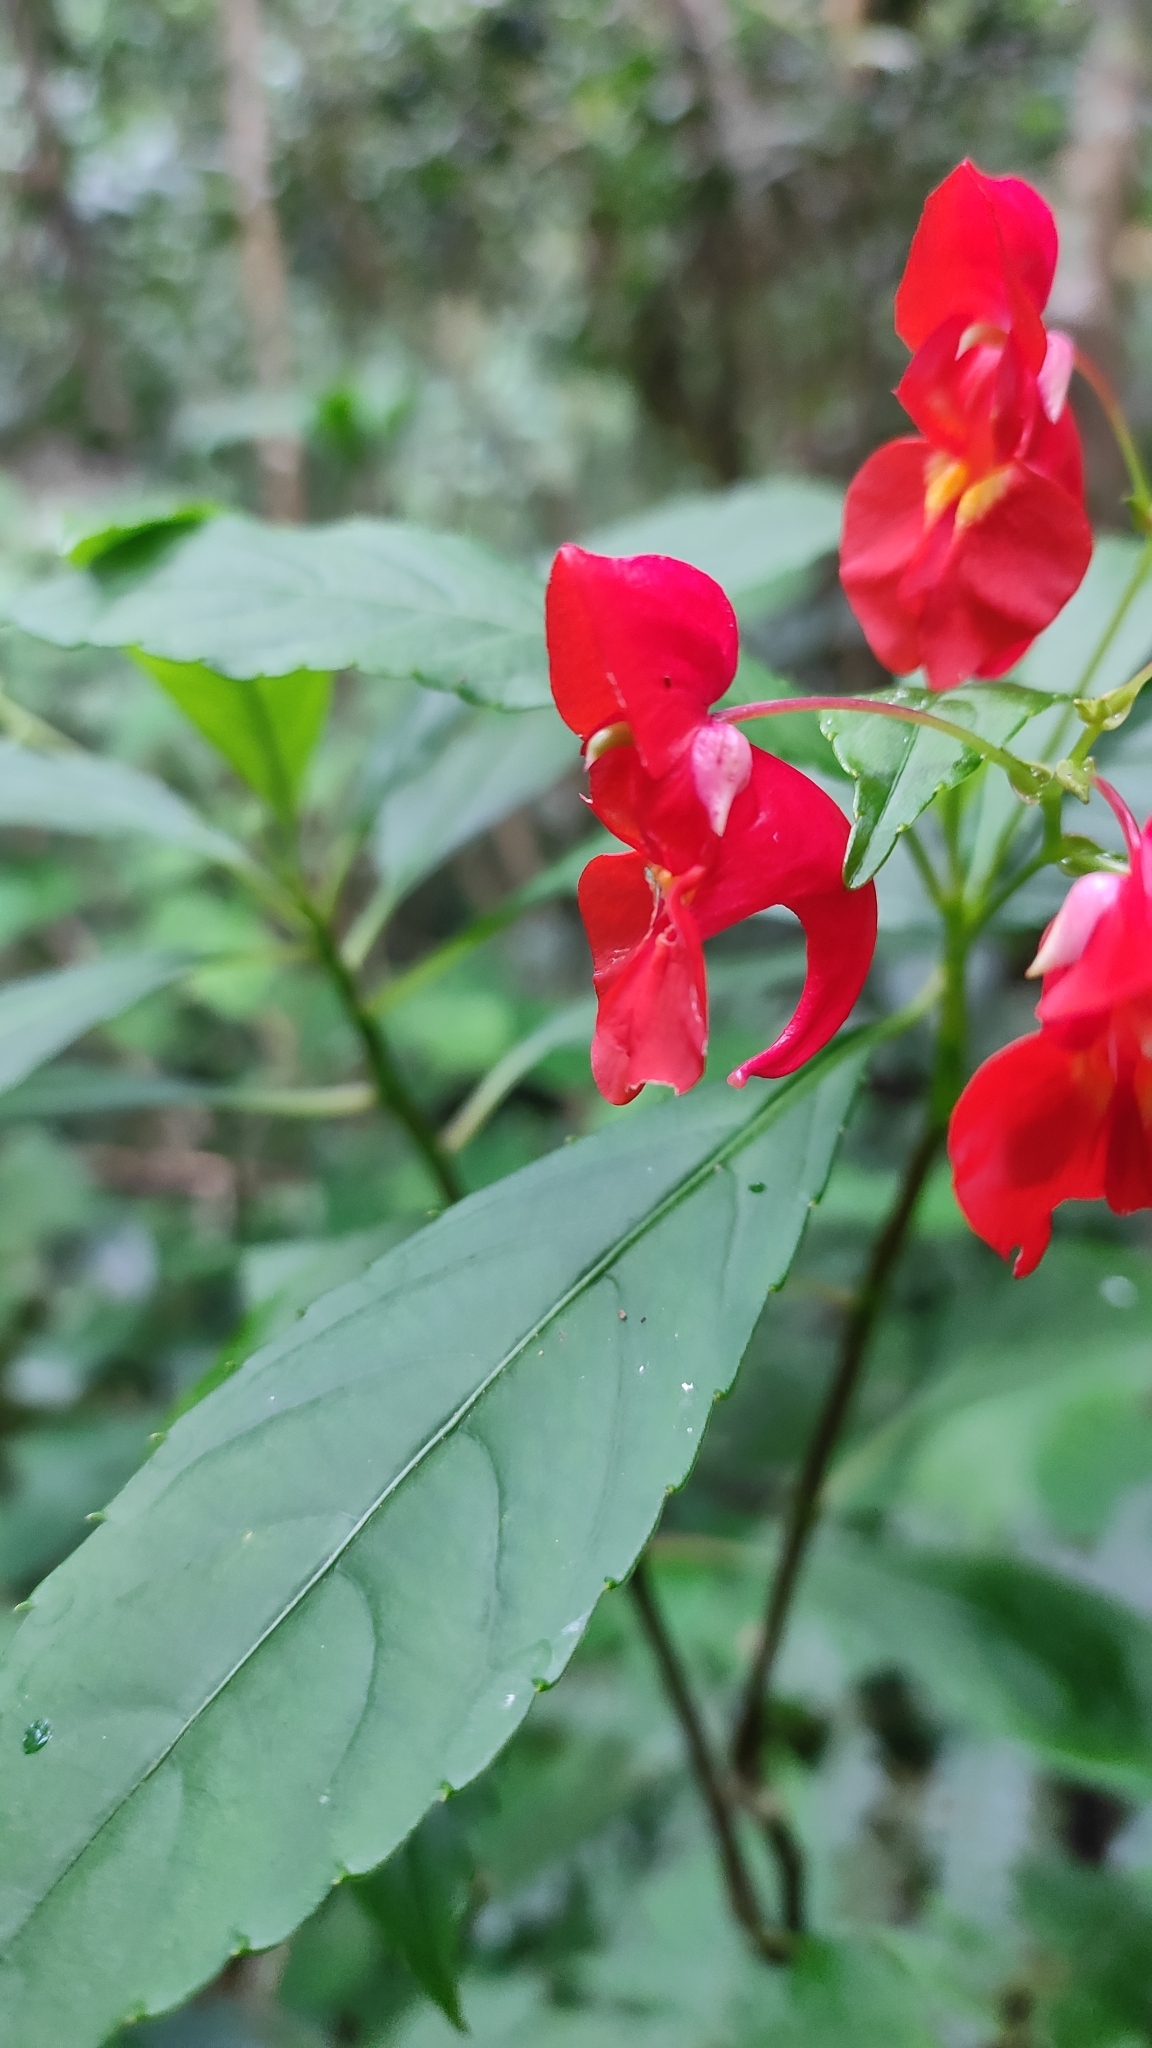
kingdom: Plantae
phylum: Tracheophyta
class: Magnoliopsida
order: Ericales
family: Balsaminaceae
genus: Impatiens
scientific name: Impatiens phoenicea
